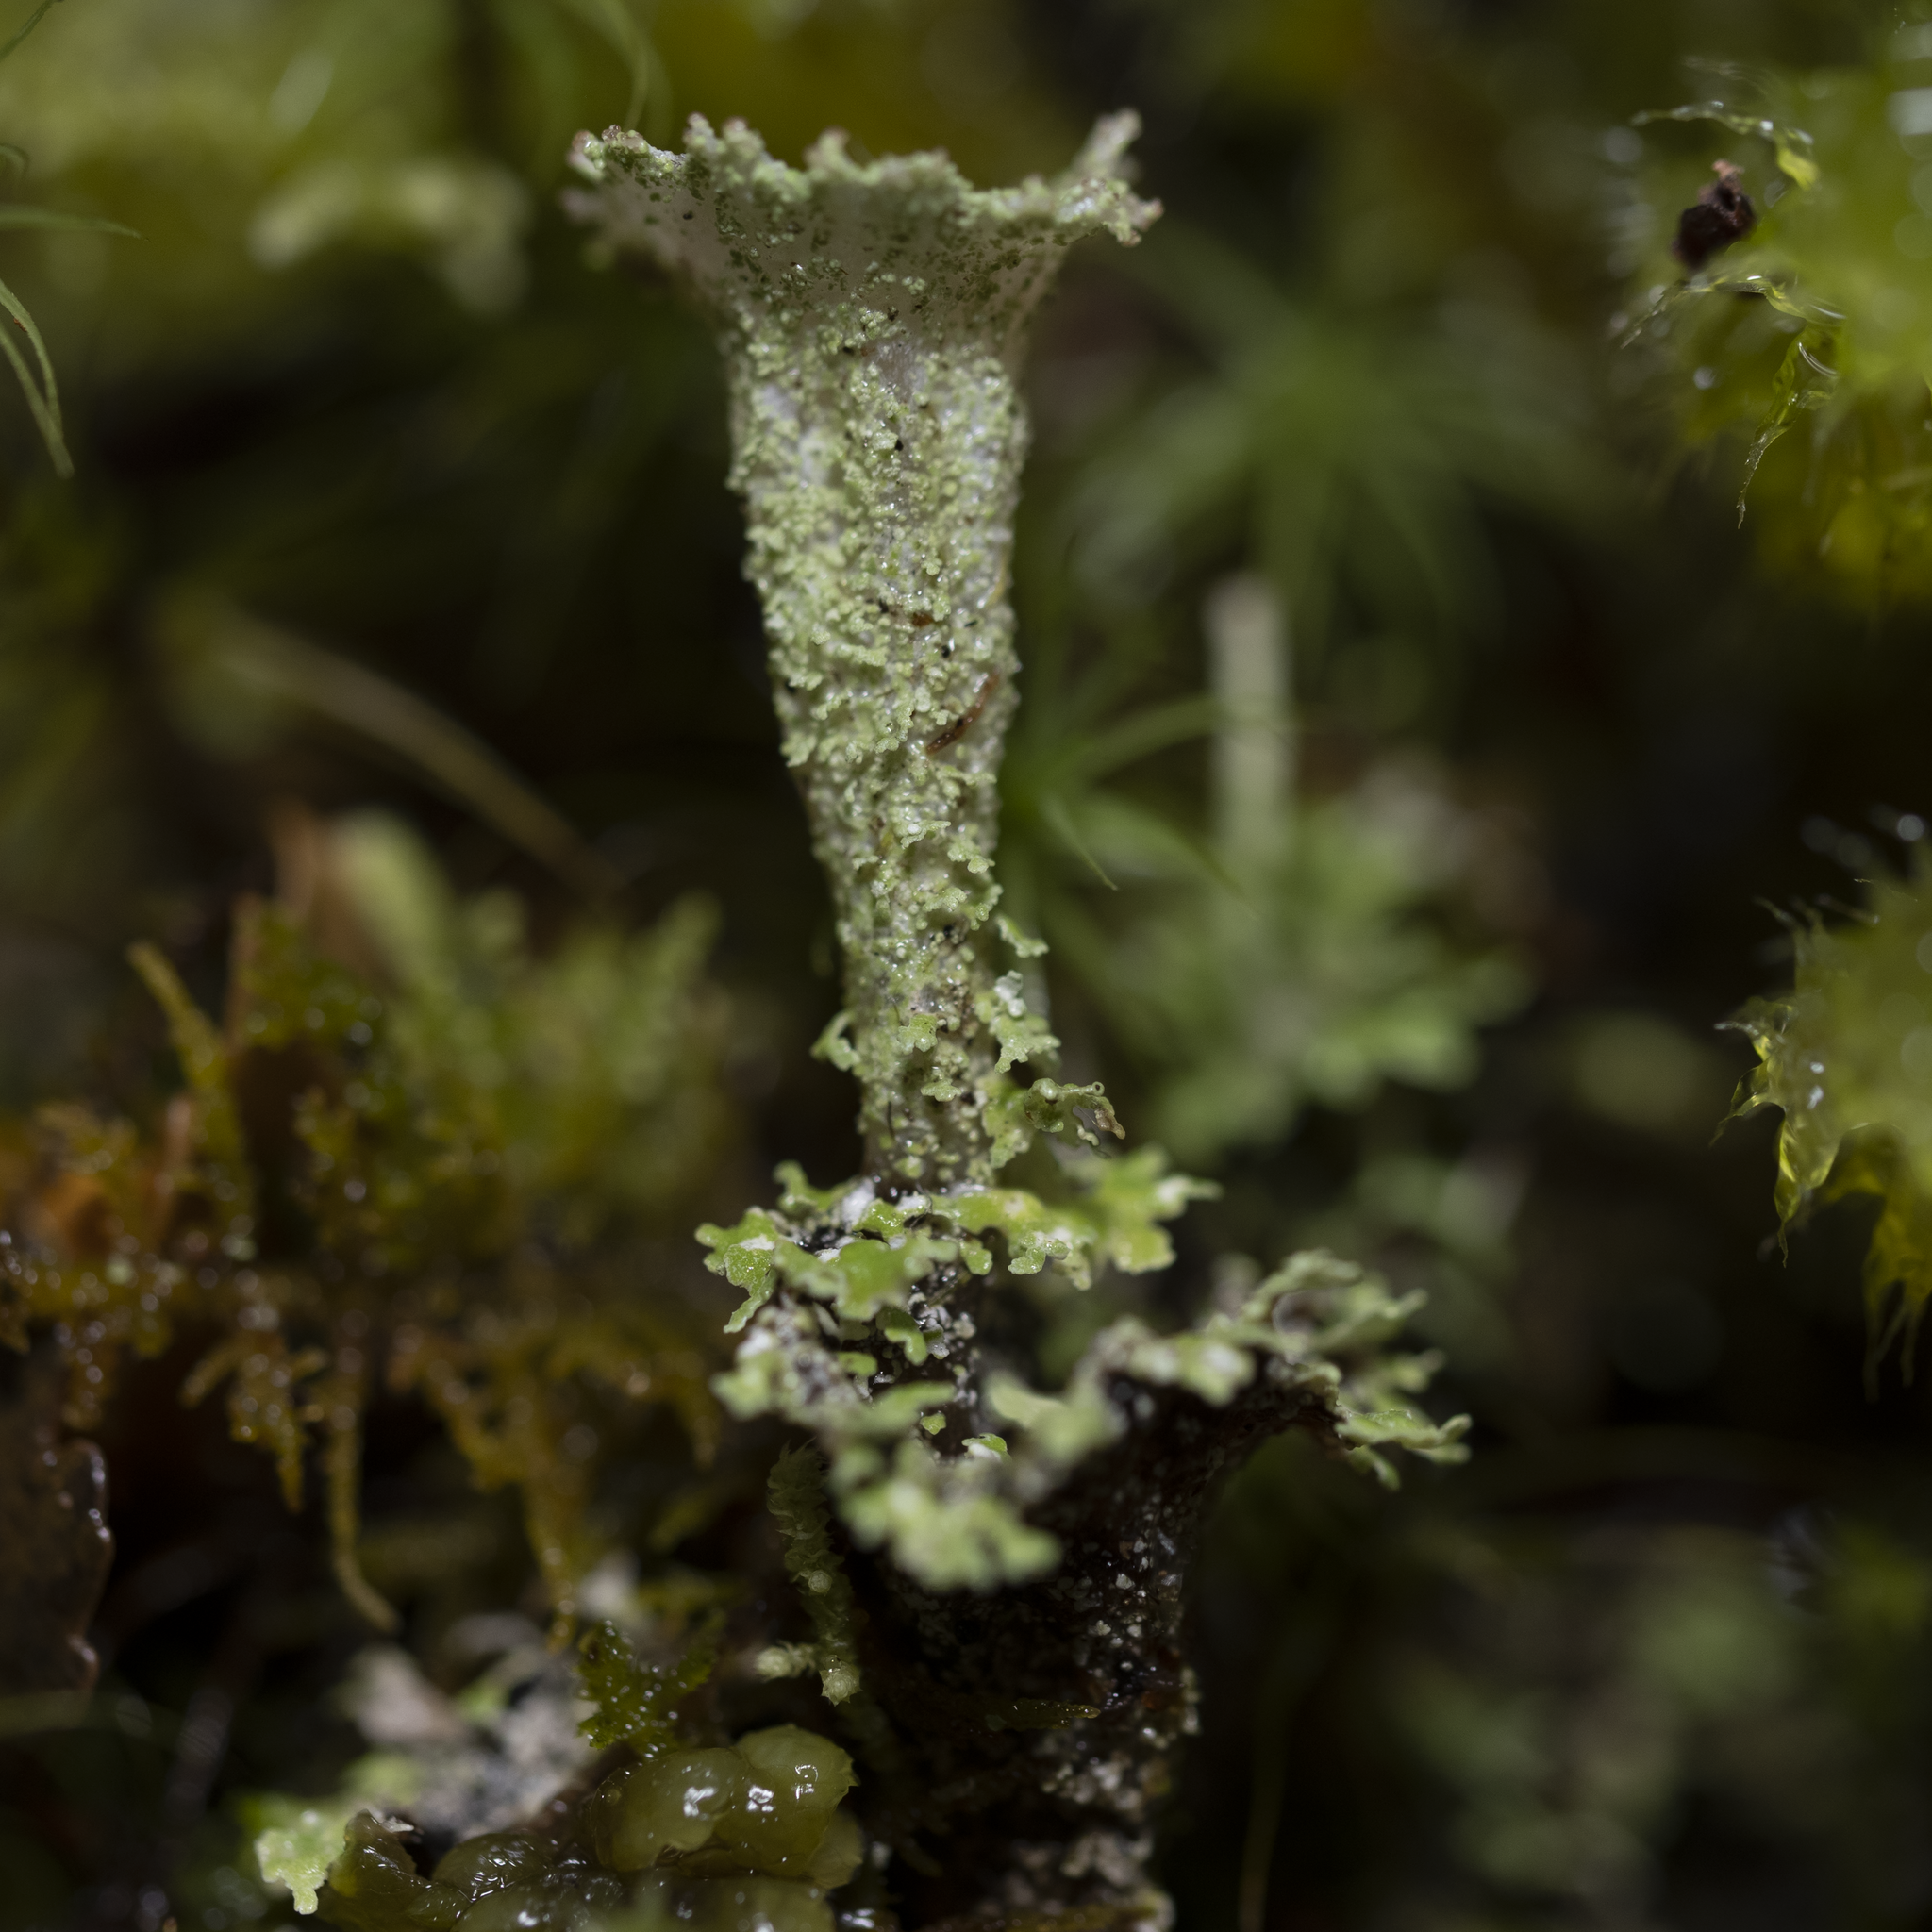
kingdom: Fungi
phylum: Ascomycota
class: Lecanoromycetes
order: Lecanorales
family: Cladoniaceae
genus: Cladonia
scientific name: Cladonia fimbriata
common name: Powdered trumpet lichen
